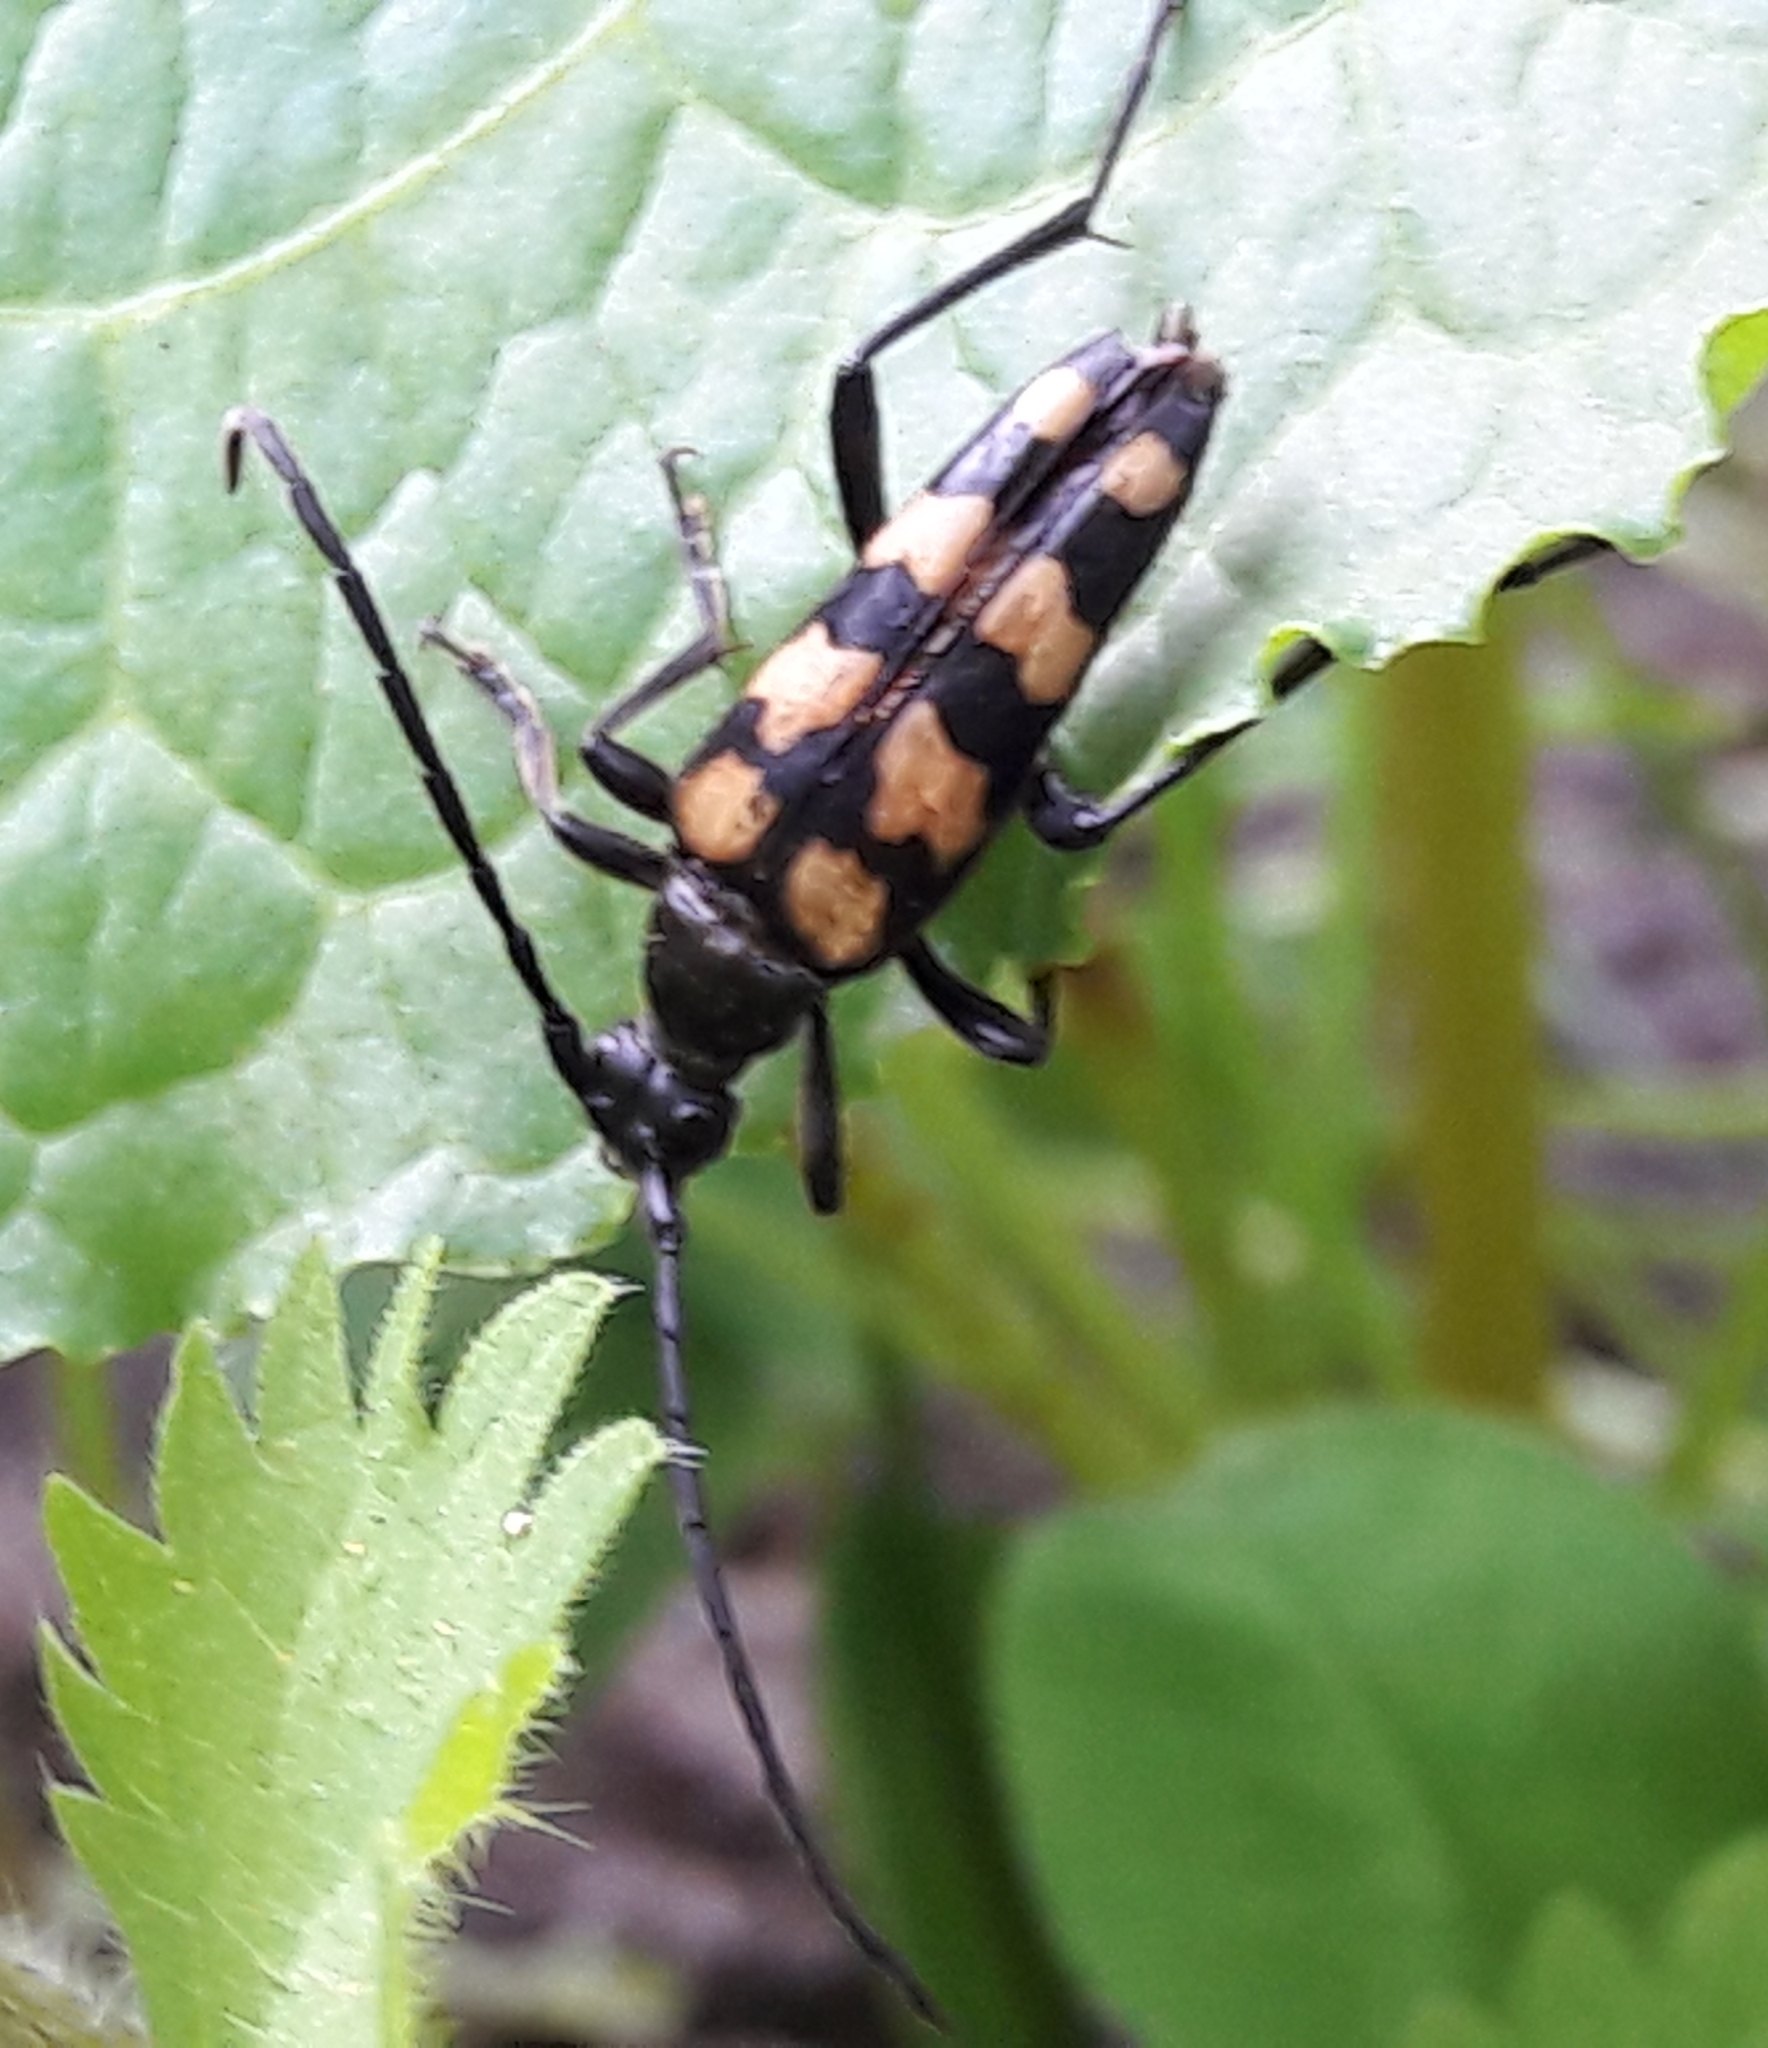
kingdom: Animalia
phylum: Arthropoda
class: Insecta
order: Coleoptera
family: Cerambycidae
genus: Leptura
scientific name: Leptura quadrifasciata
